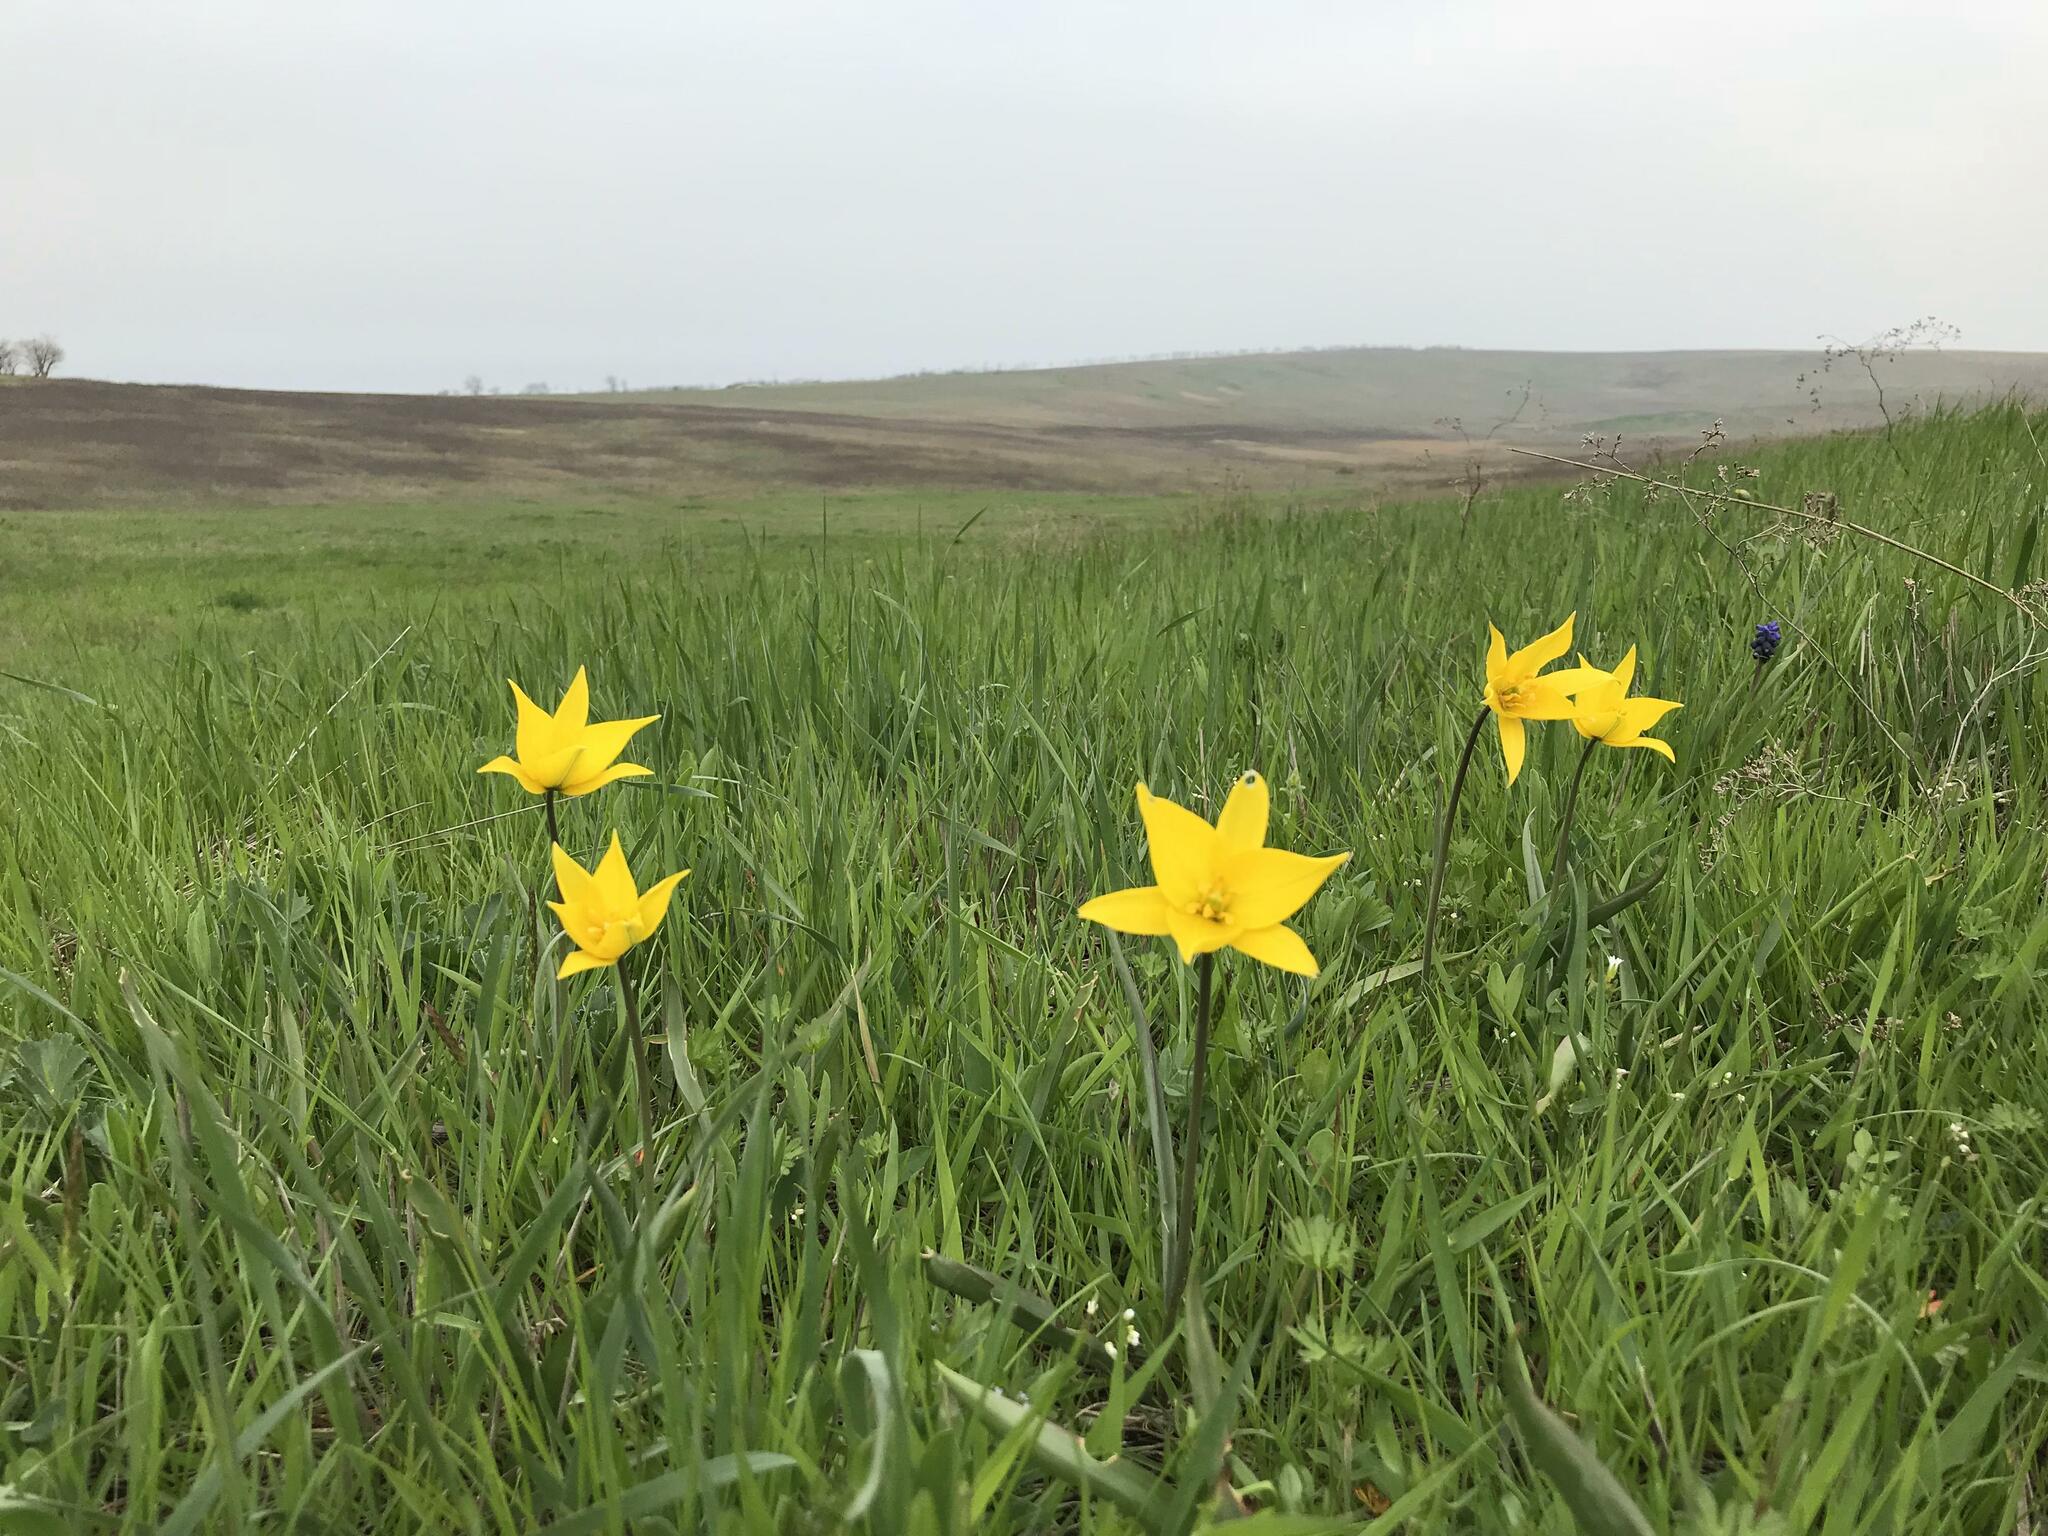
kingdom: Plantae
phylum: Tracheophyta
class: Liliopsida
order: Liliales
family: Liliaceae
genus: Tulipa
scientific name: Tulipa sylvestris
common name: Wild tulip
